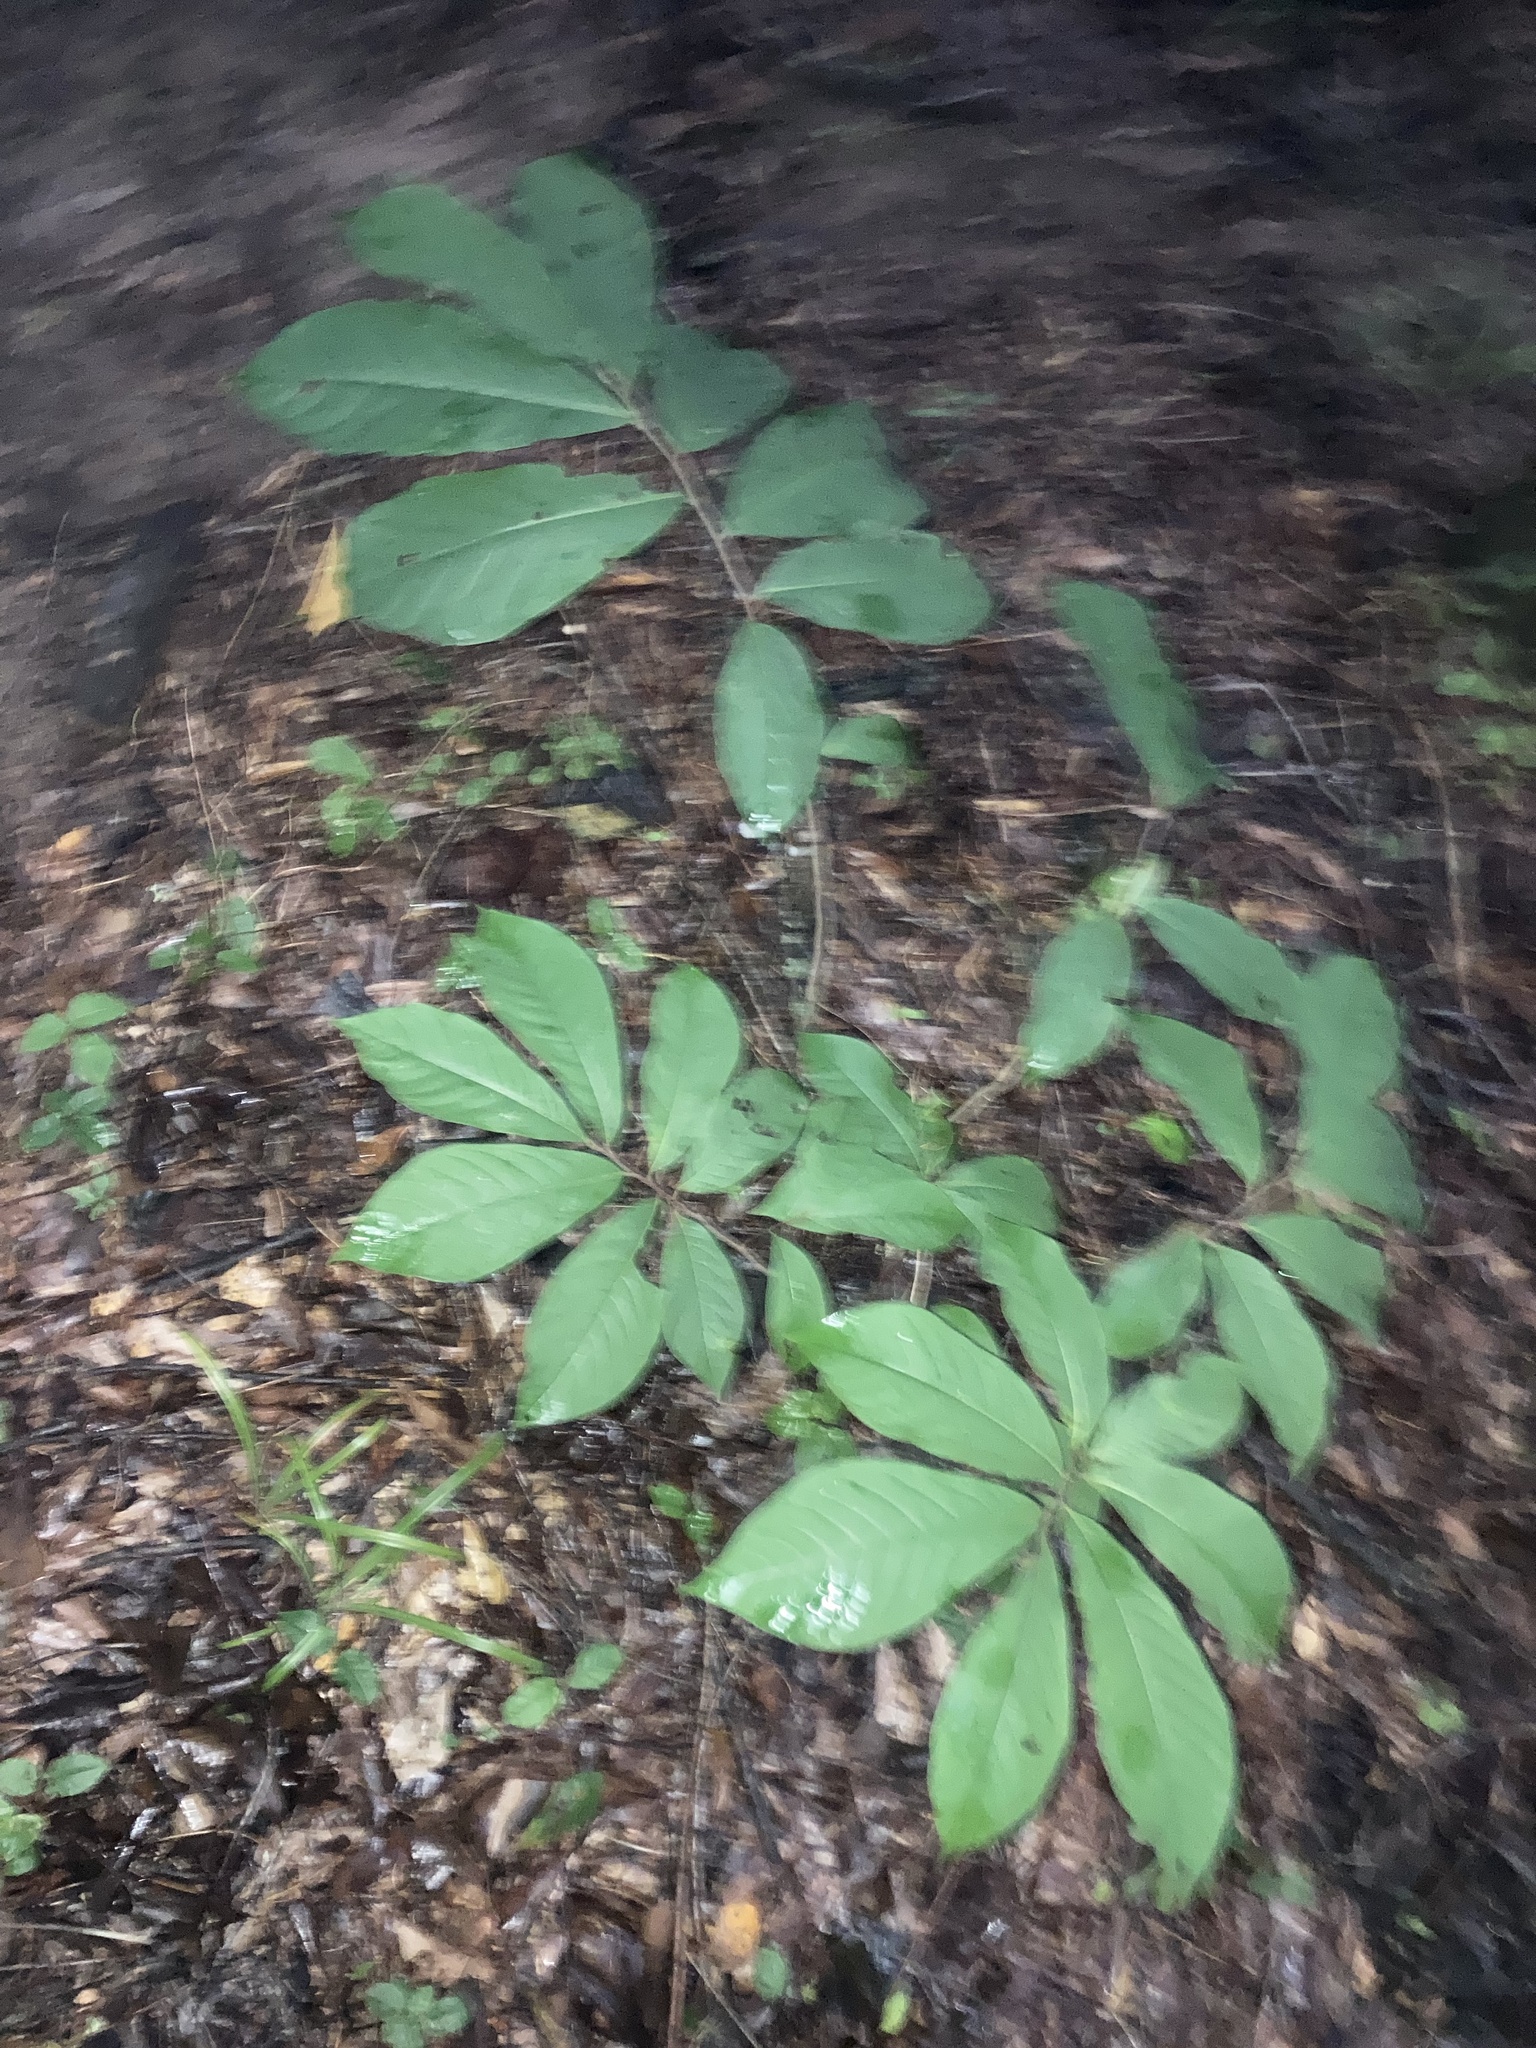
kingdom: Plantae
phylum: Tracheophyta
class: Magnoliopsida
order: Magnoliales
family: Annonaceae
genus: Asimina
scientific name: Asimina triloba
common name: Dog-banana
